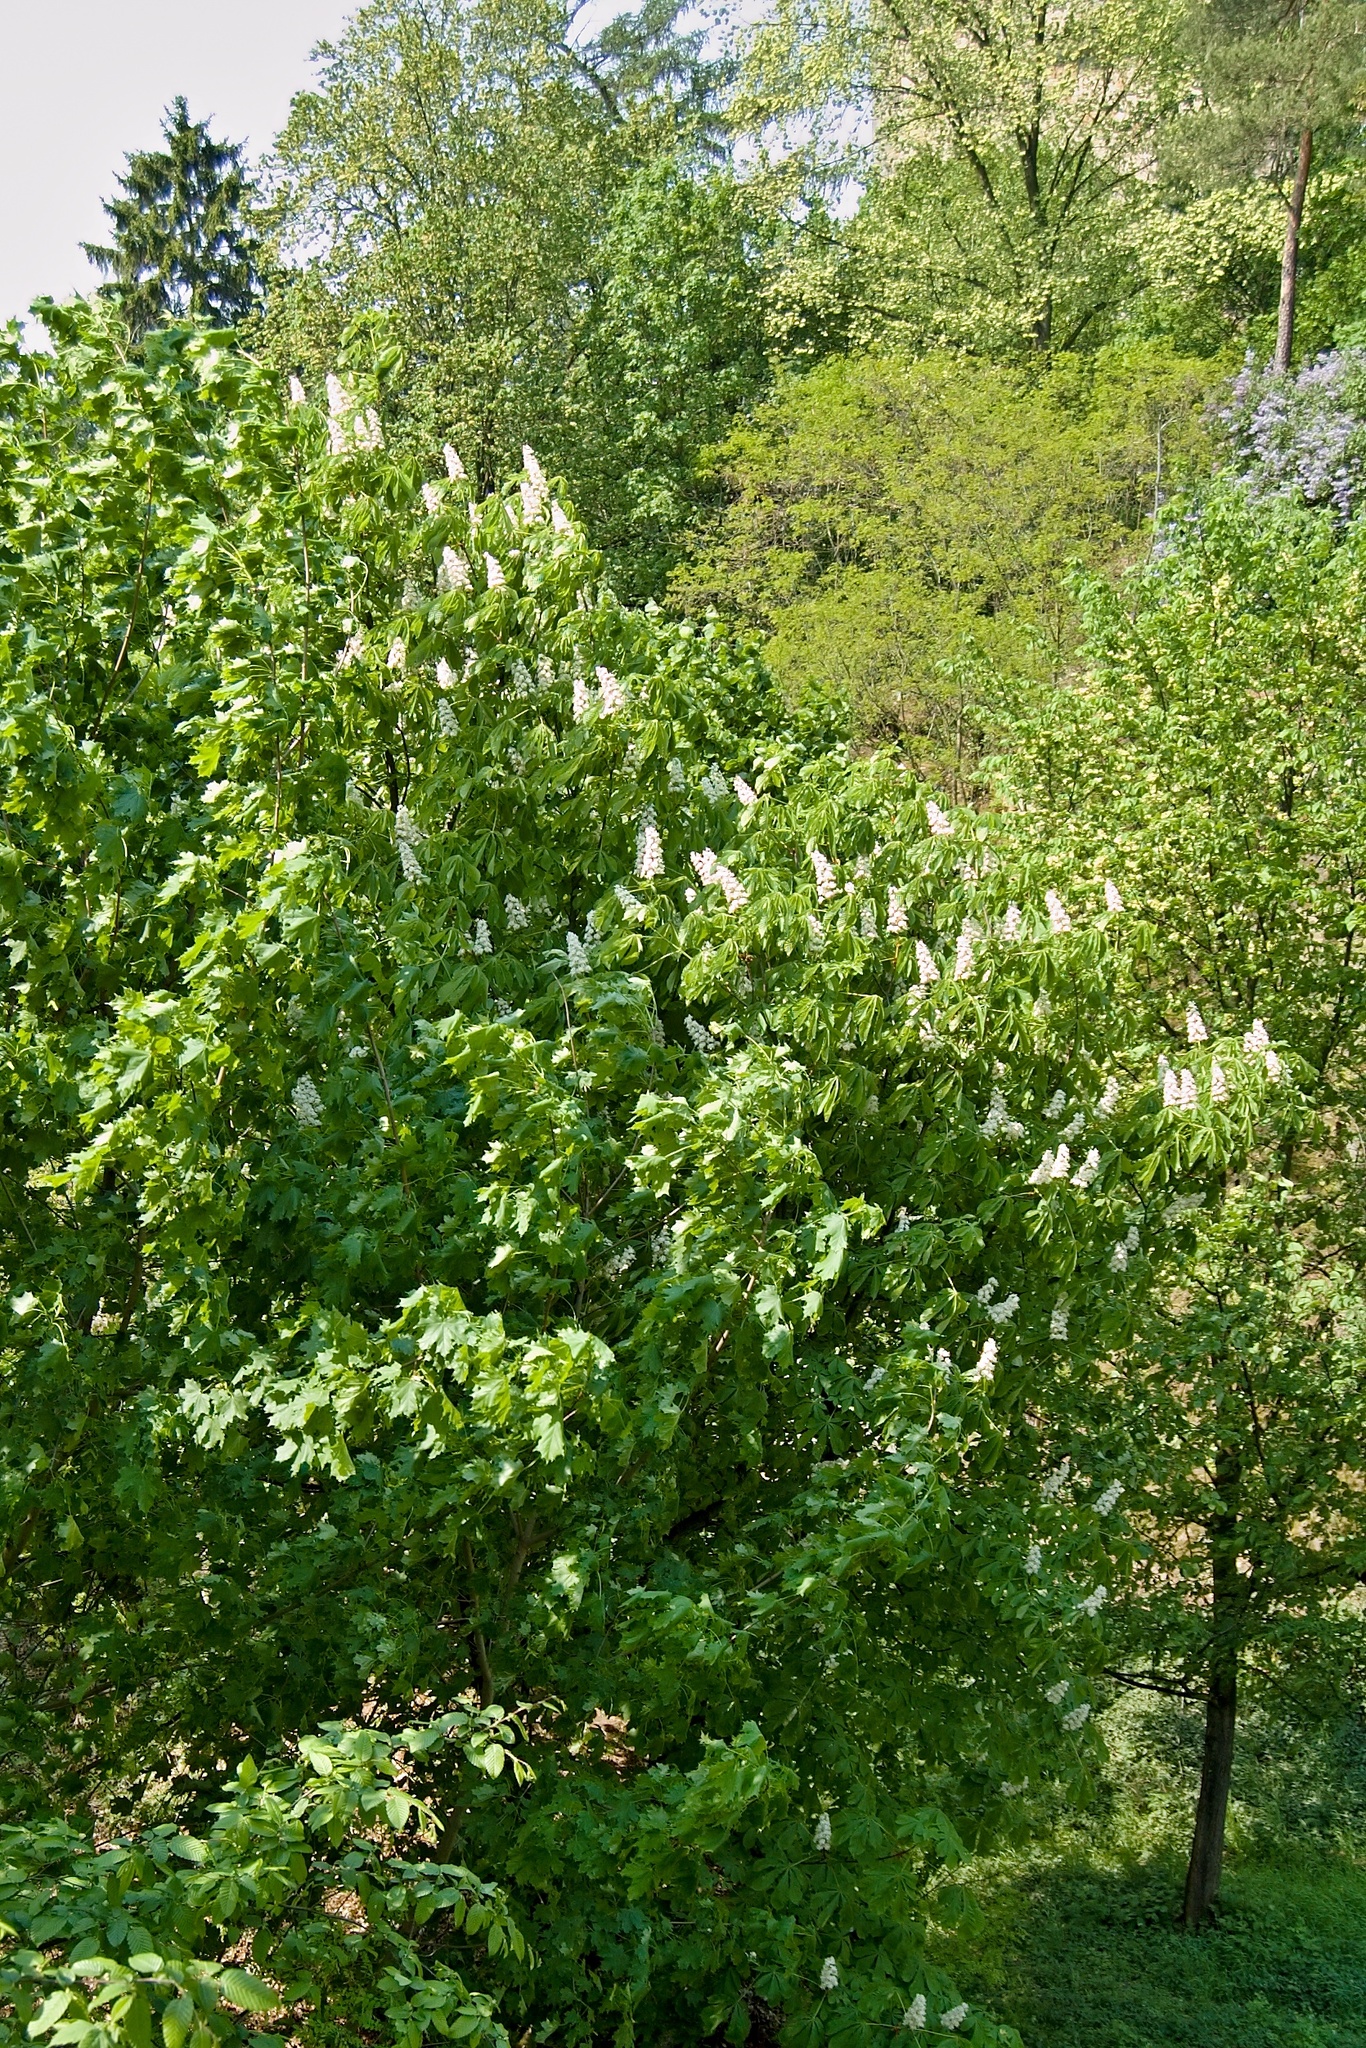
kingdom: Plantae
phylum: Tracheophyta
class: Magnoliopsida
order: Sapindales
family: Sapindaceae
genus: Aesculus
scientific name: Aesculus hippocastanum
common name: Horse-chestnut
